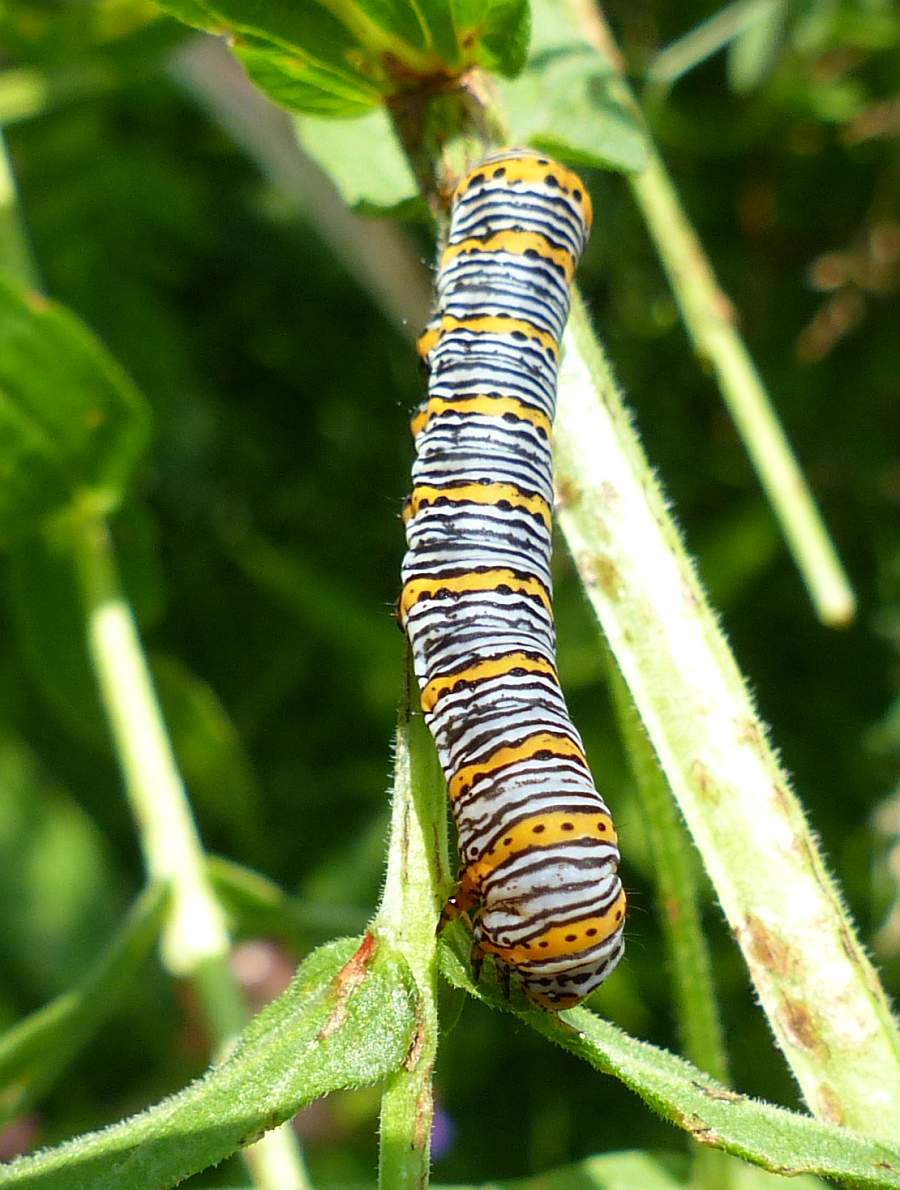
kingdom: Animalia
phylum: Arthropoda
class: Insecta
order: Lepidoptera
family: Noctuidae
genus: Eudryas
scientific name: Eudryas unio
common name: Pearly wood-nymph
